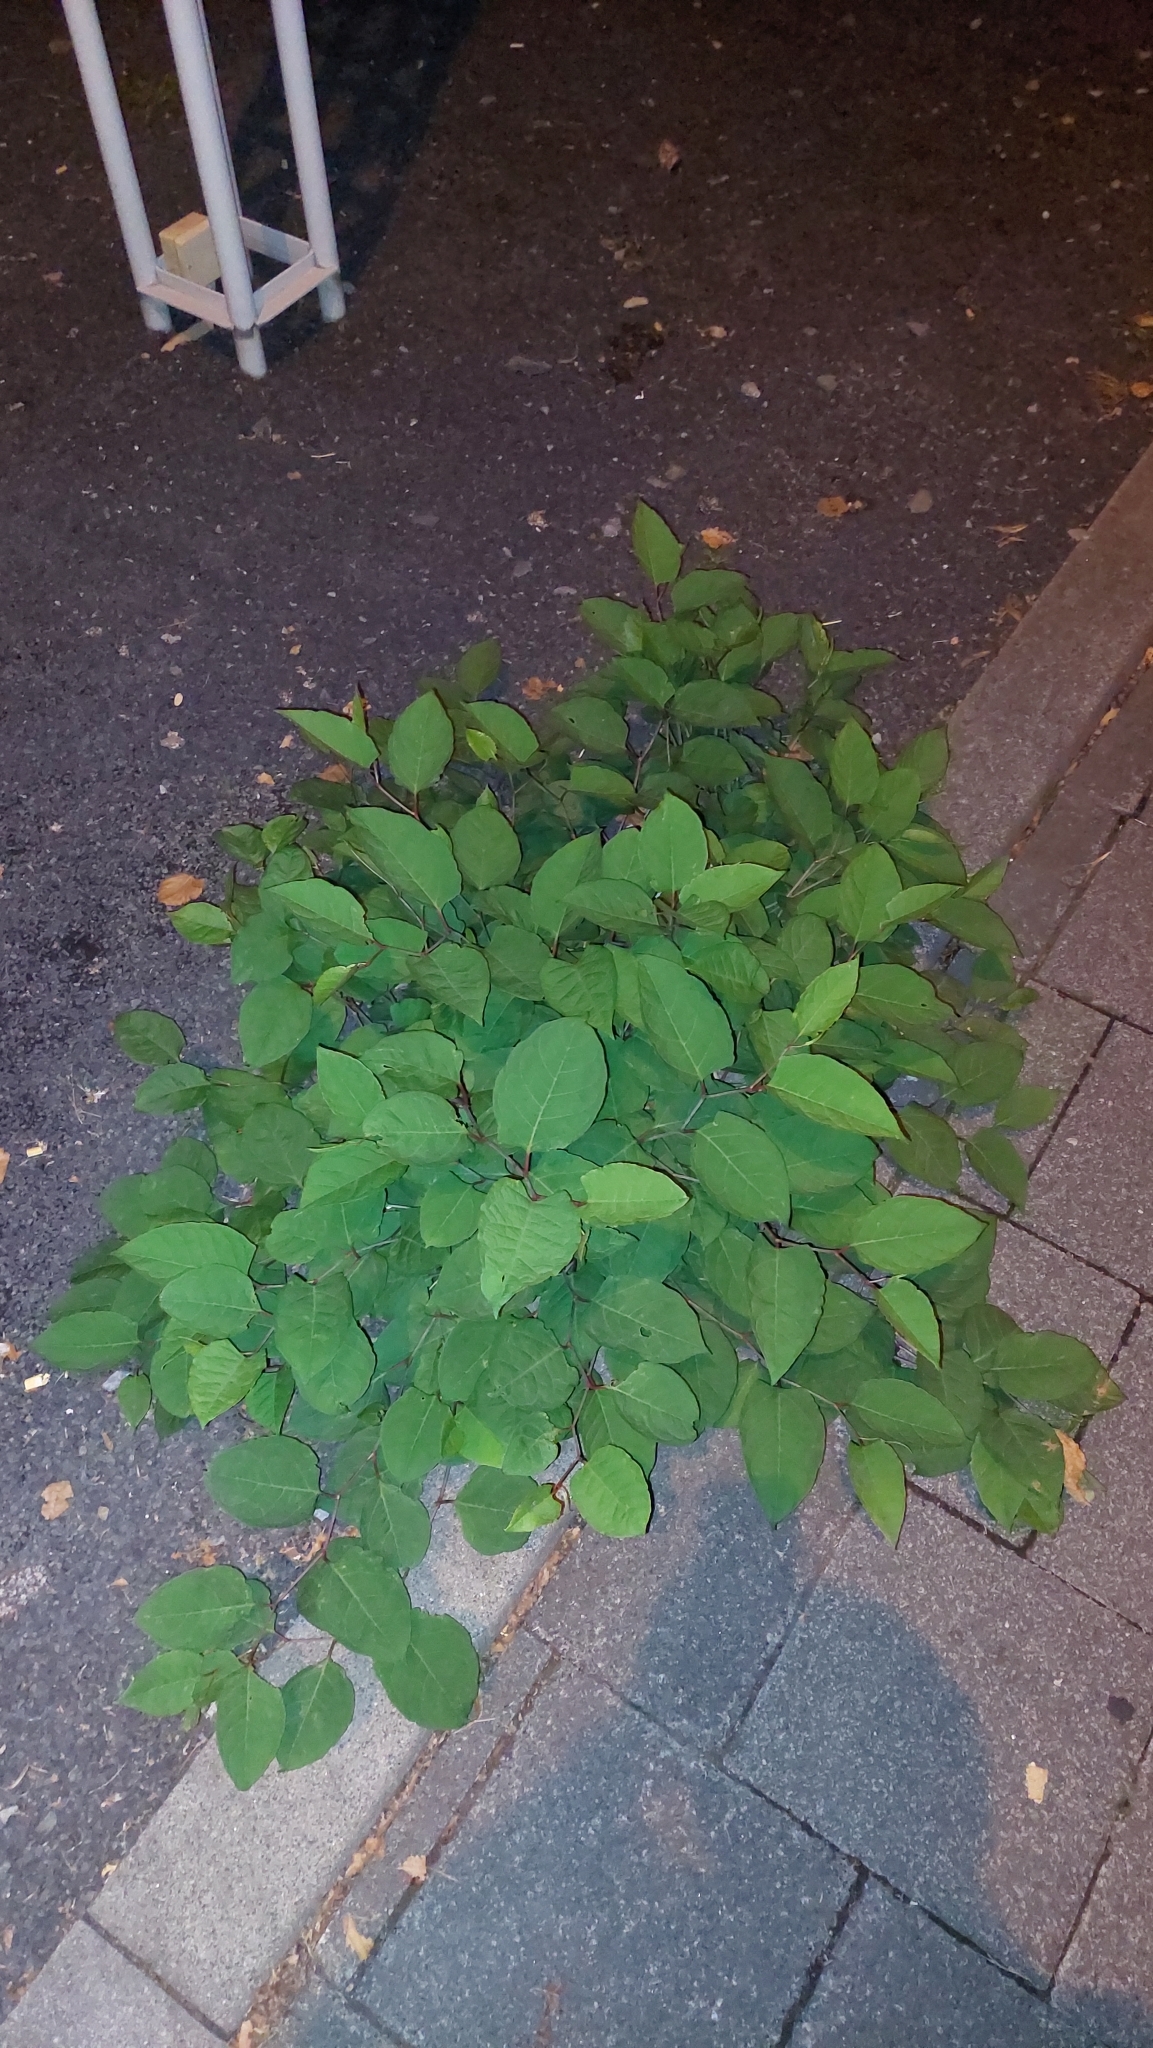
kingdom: Plantae
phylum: Tracheophyta
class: Magnoliopsida
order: Caryophyllales
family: Polygonaceae
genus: Reynoutria
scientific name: Reynoutria japonica
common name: Japanese knotweed
